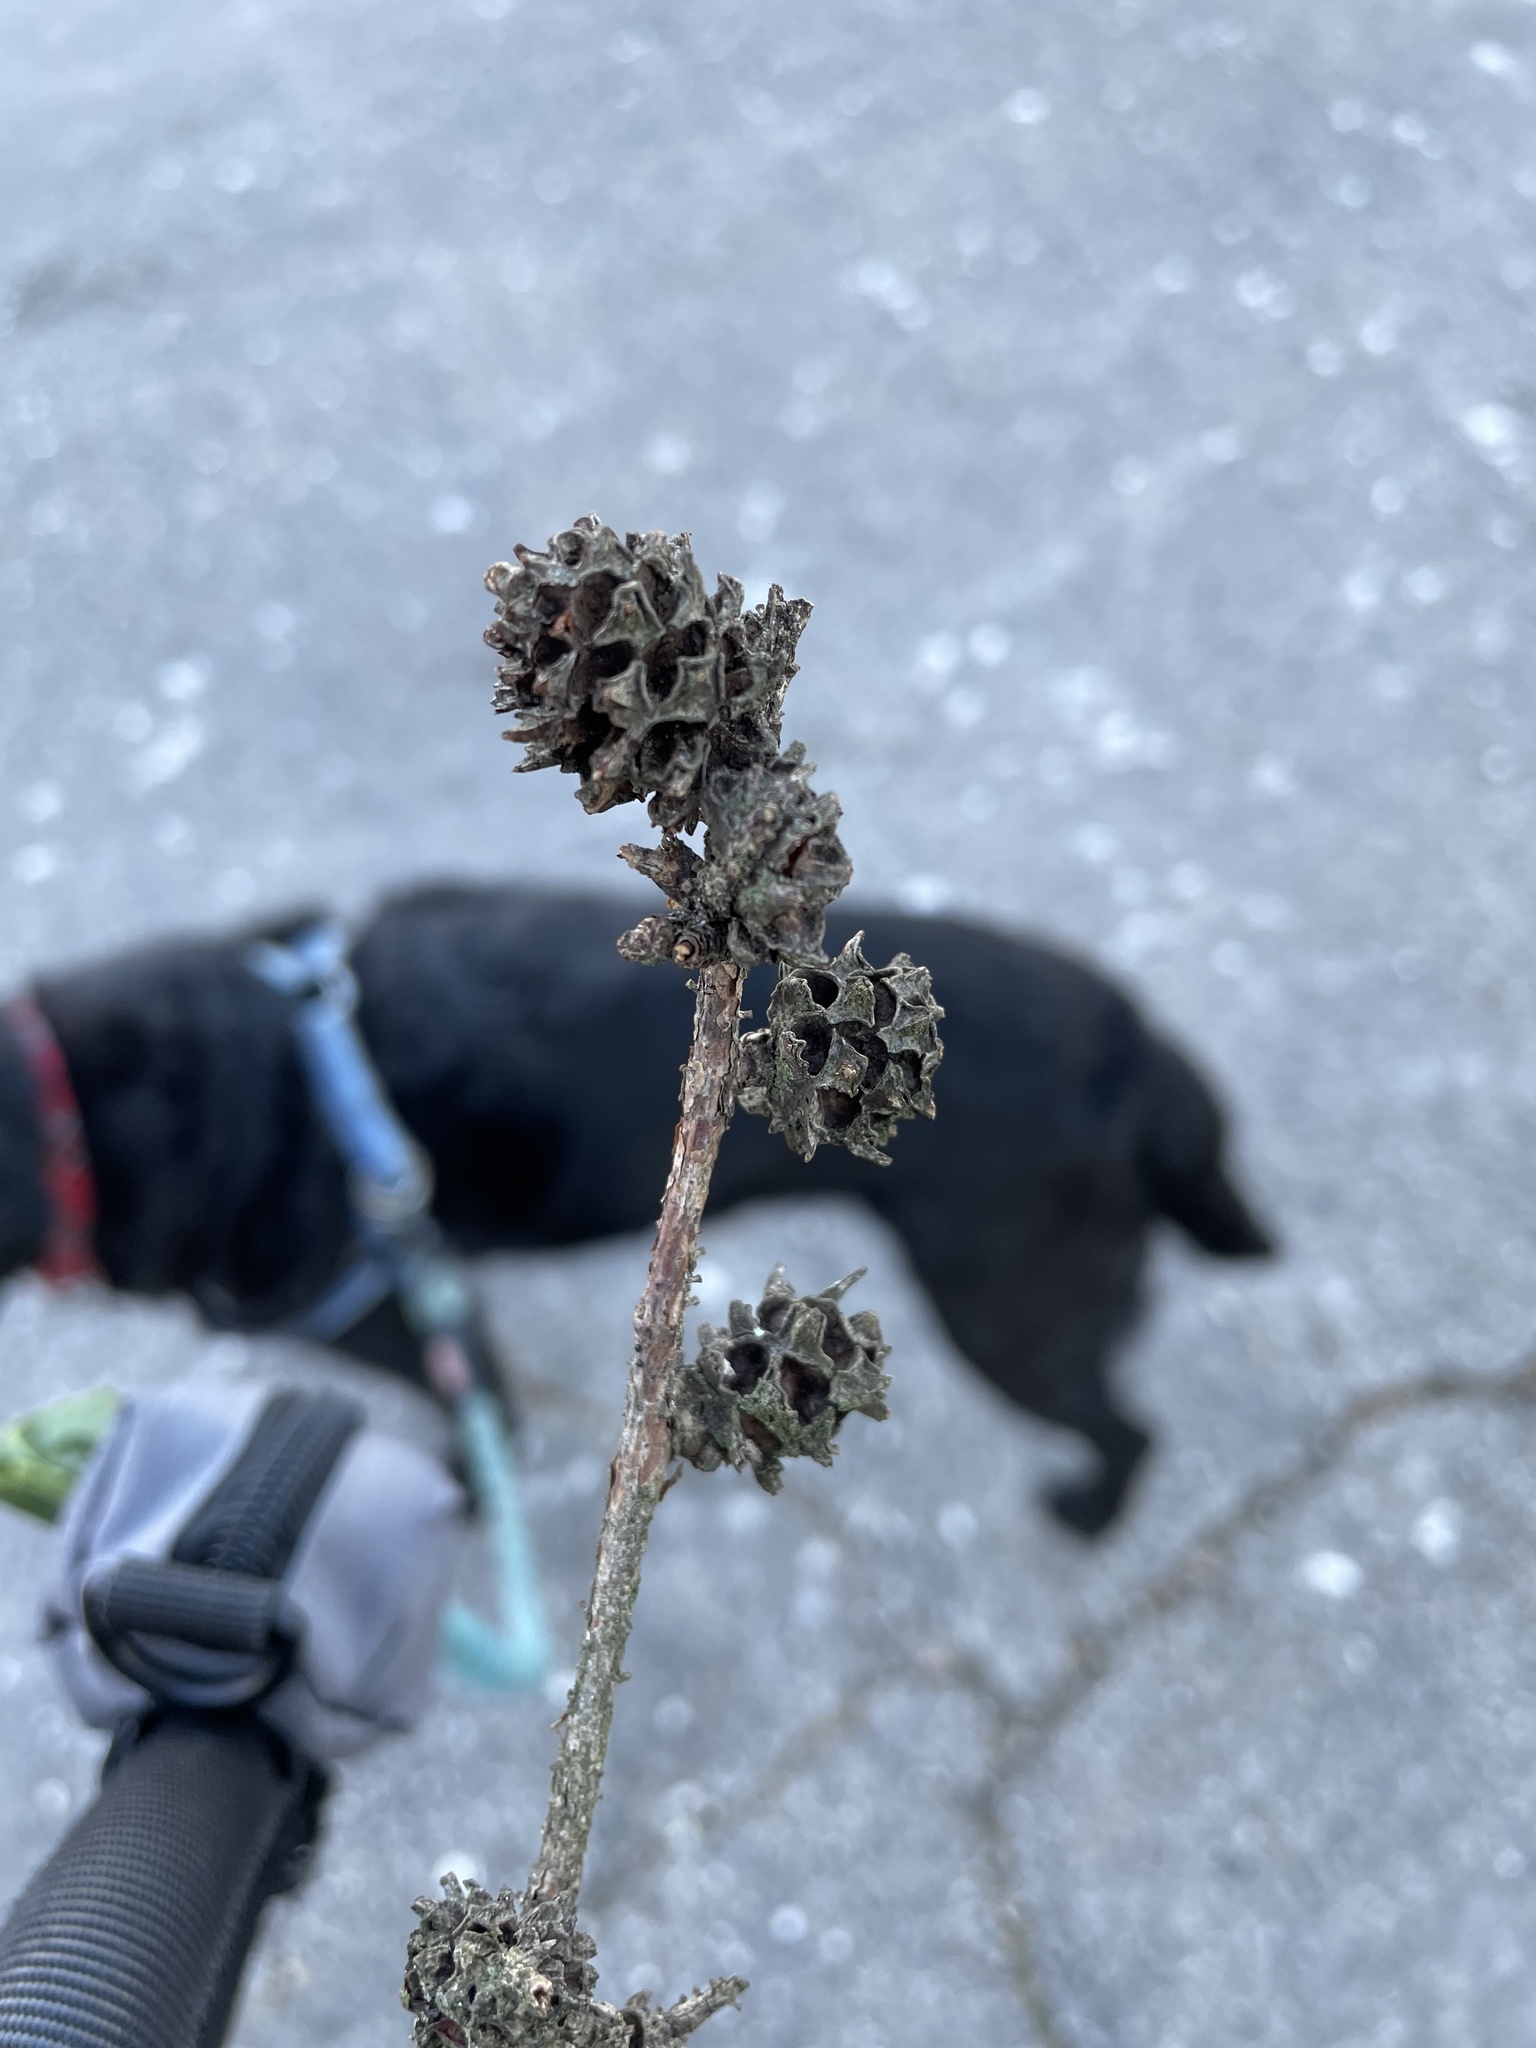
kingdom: Animalia
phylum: Arthropoda
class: Insecta
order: Hemiptera
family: Adelgidae
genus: Adelges
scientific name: Adelges abietis
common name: Eastern spruce gall adelgid
